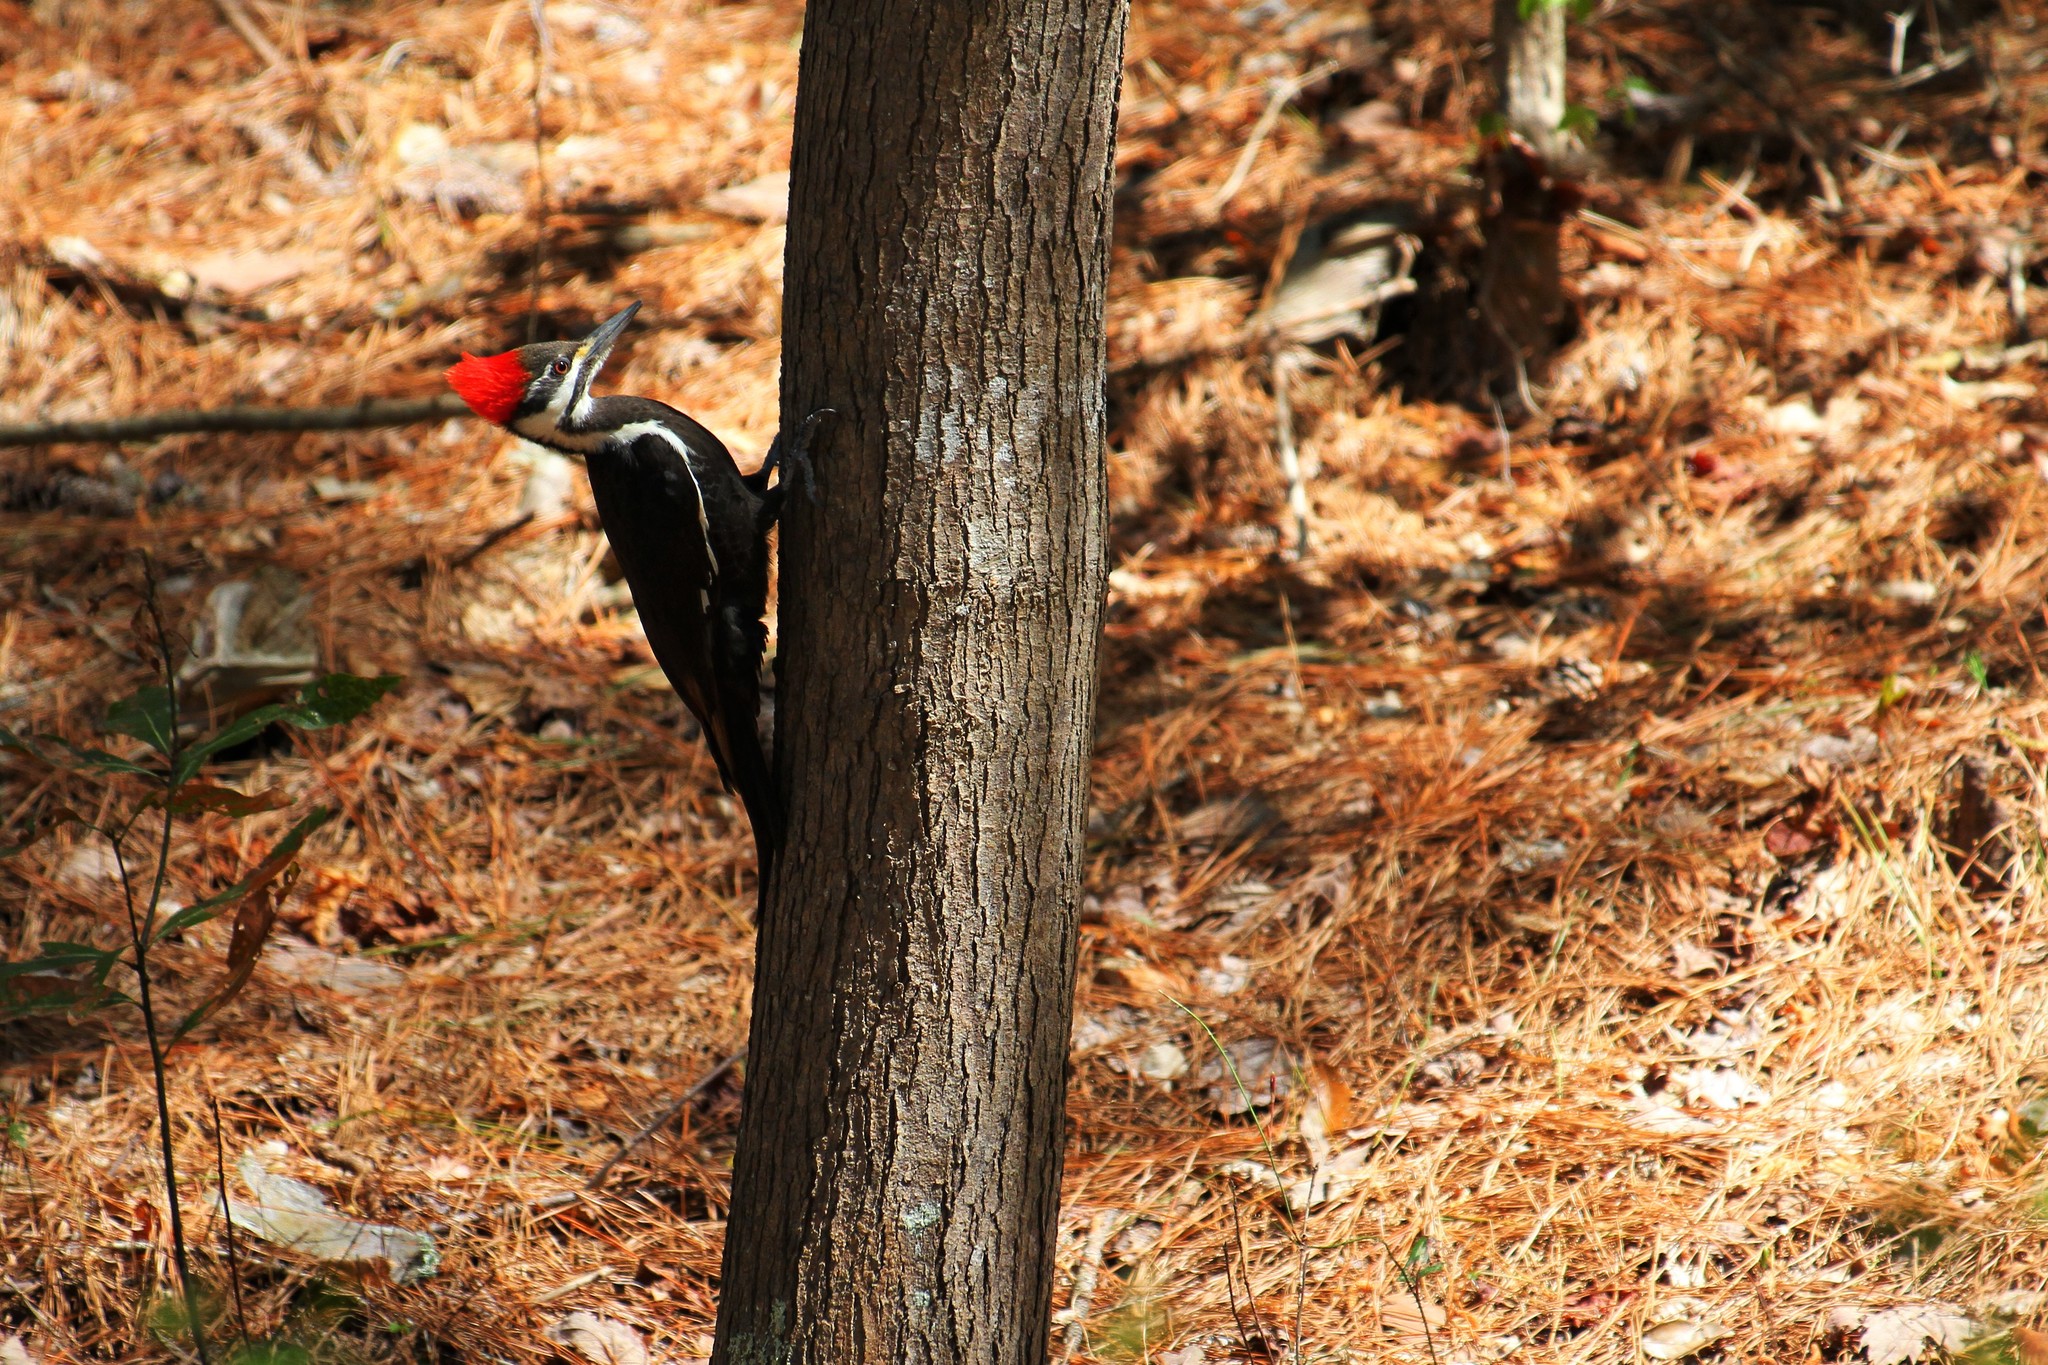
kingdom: Animalia
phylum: Chordata
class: Aves
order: Piciformes
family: Picidae
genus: Dryocopus
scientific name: Dryocopus pileatus
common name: Pileated woodpecker
